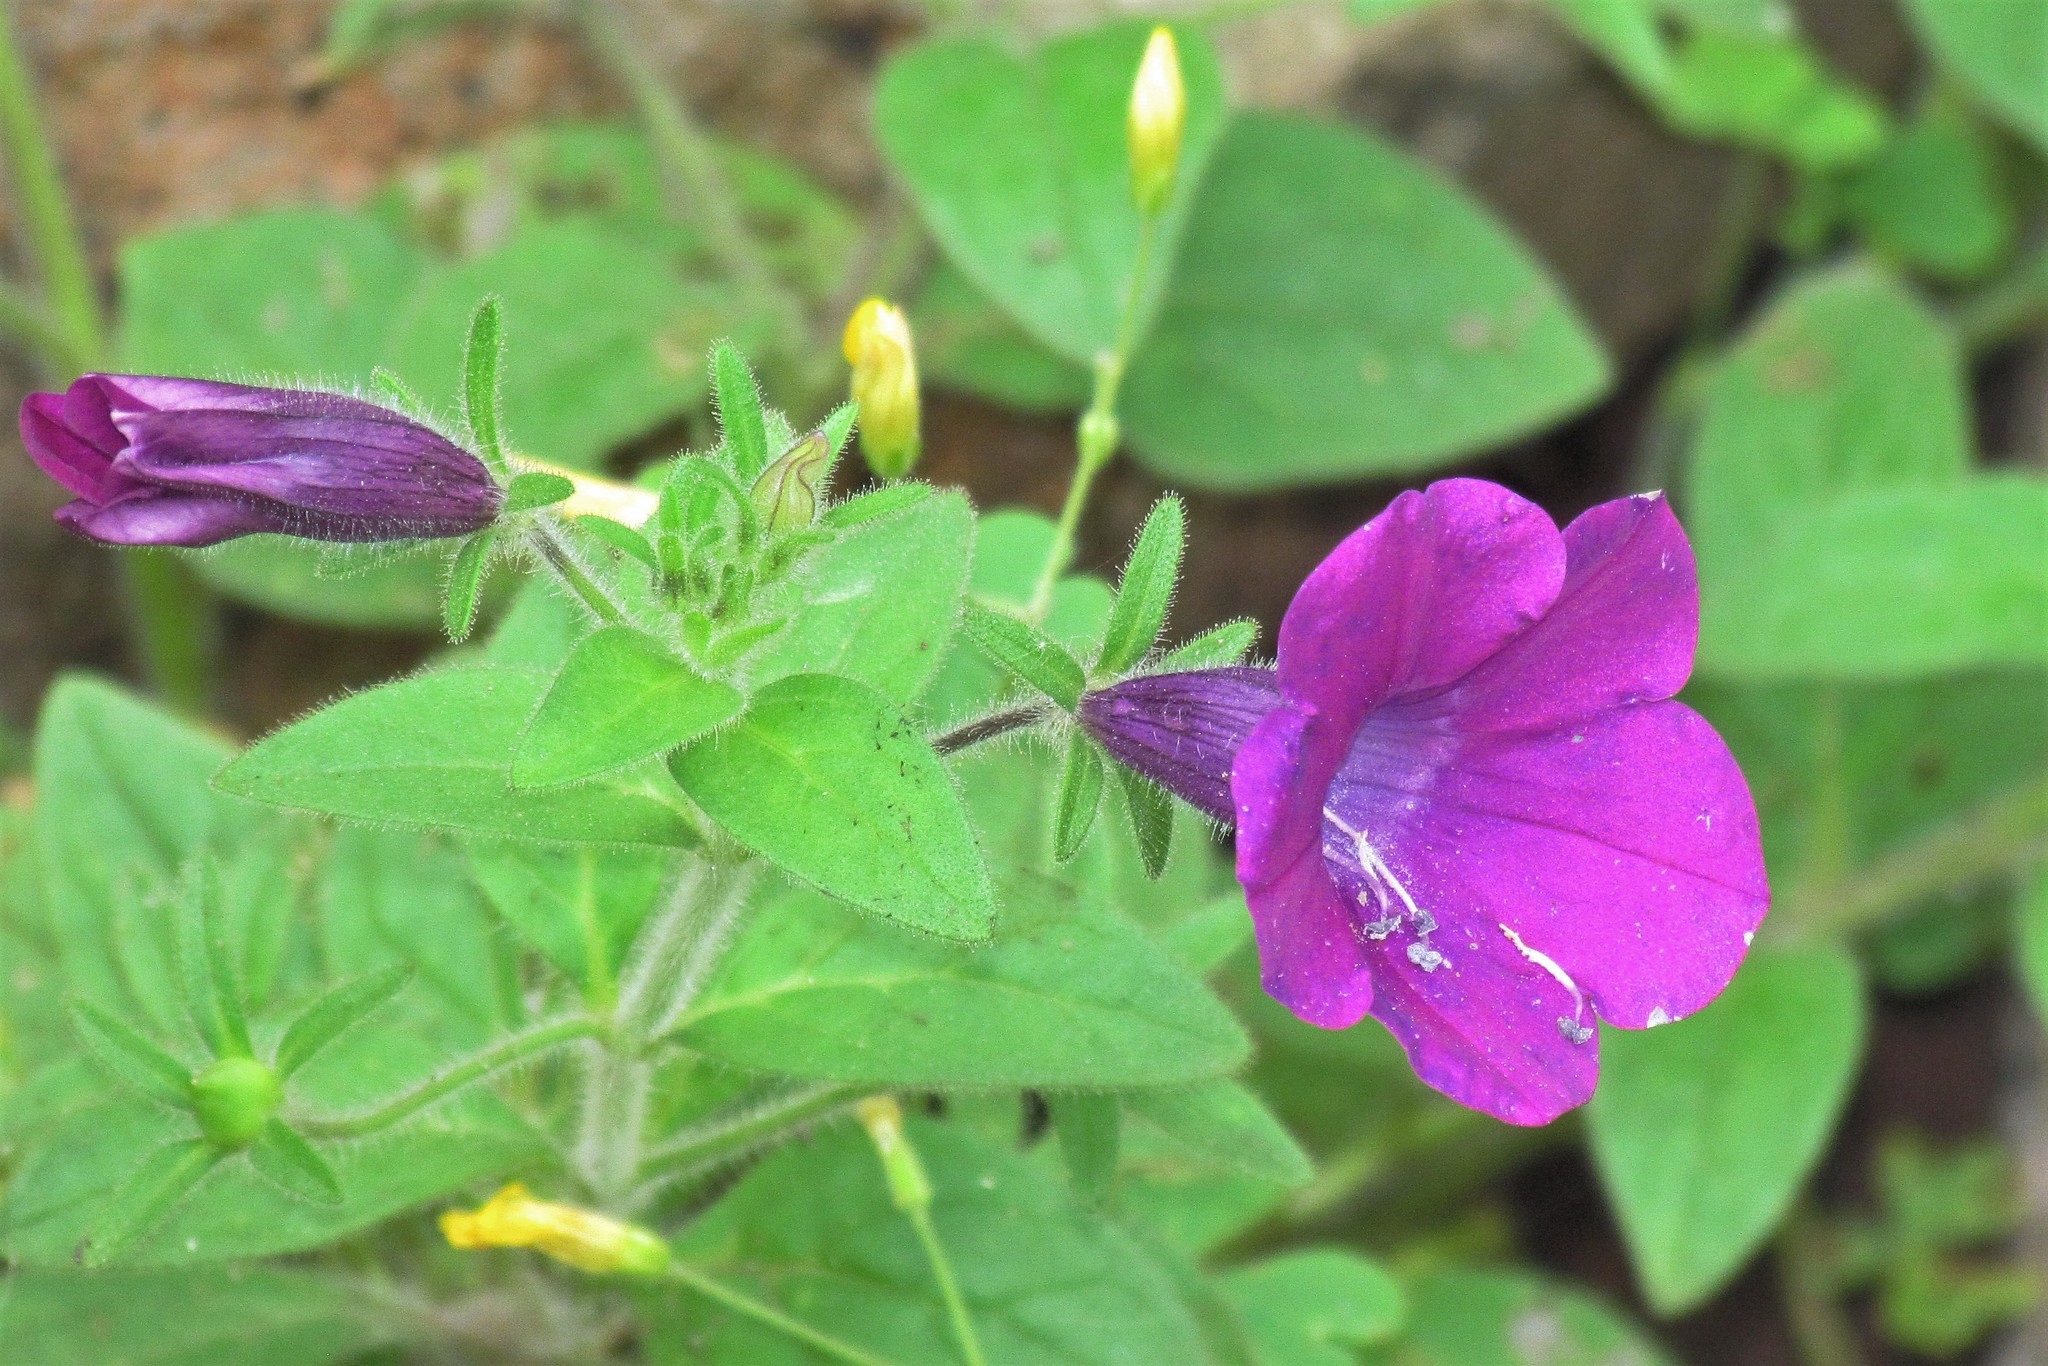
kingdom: Plantae
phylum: Tracheophyta
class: Magnoliopsida
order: Solanales
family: Solanaceae
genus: Petunia
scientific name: Petunia integrifolia
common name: Violet-flower petunia
